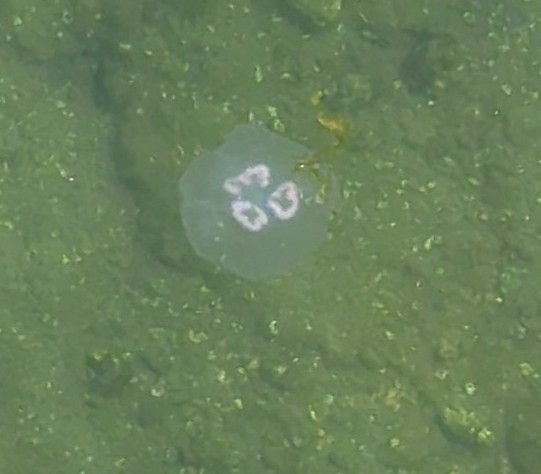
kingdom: Animalia
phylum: Cnidaria
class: Scyphozoa
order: Semaeostomeae
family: Ulmaridae
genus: Aurelia
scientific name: Aurelia labiata
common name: Pacific moon jelly
